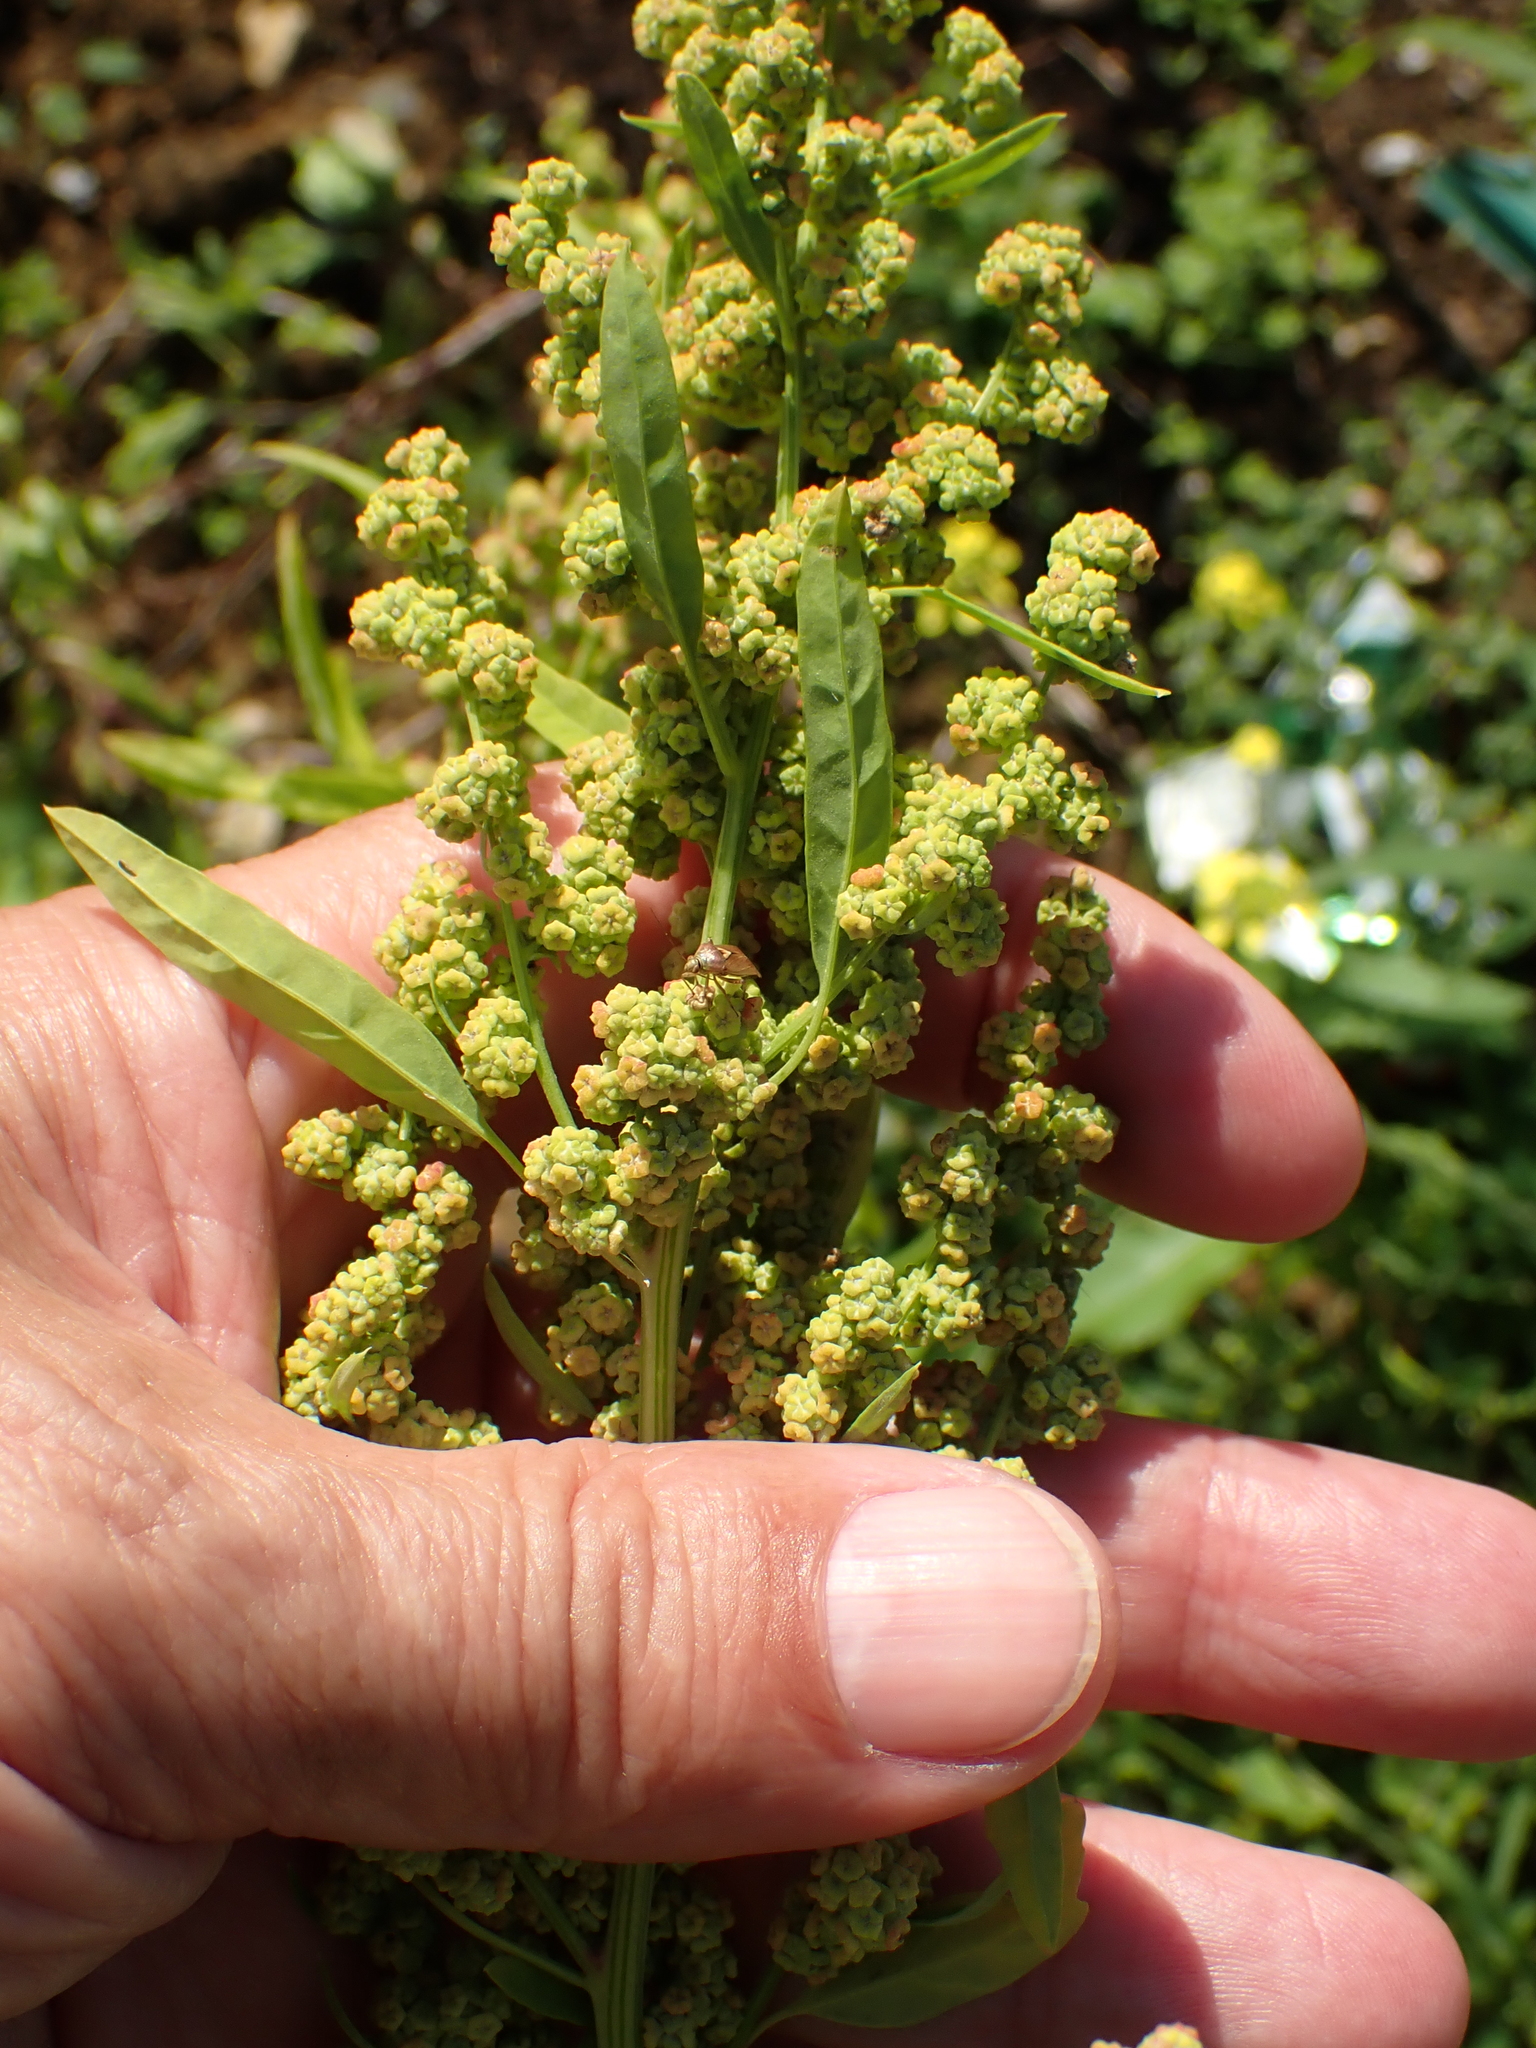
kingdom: Plantae
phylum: Tracheophyta
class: Magnoliopsida
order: Caryophyllales
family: Amaranthaceae
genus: Chenopodium
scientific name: Chenopodium ficifolium
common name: Fig-leaved goosefoot
